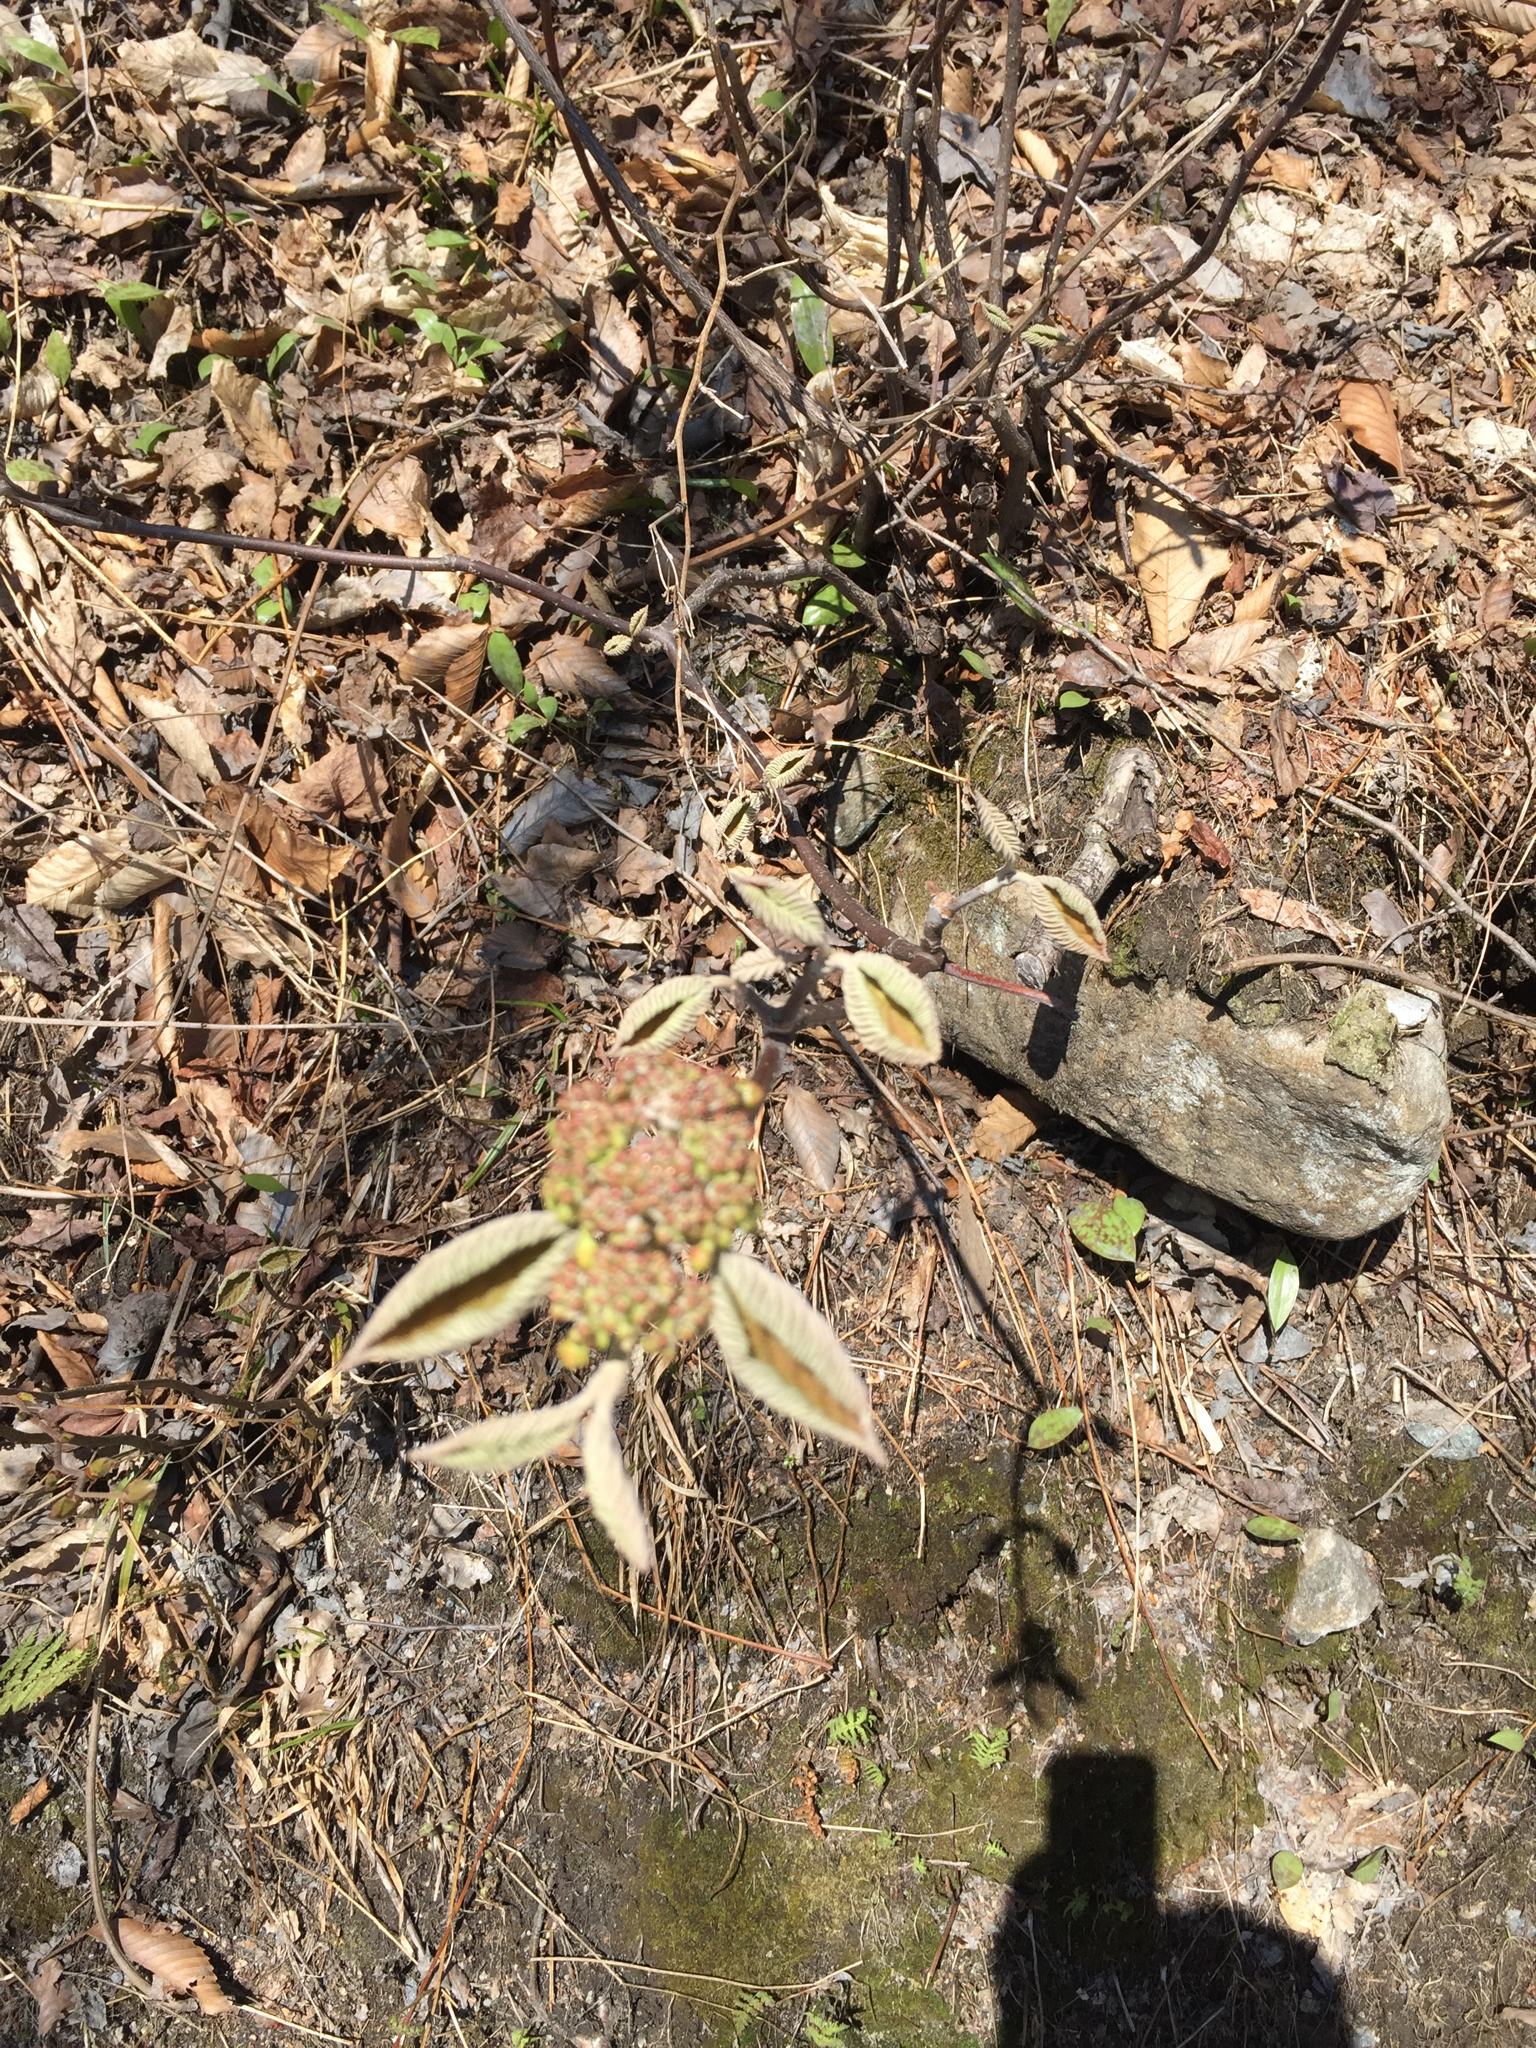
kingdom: Plantae
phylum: Tracheophyta
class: Magnoliopsida
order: Dipsacales
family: Viburnaceae
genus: Viburnum
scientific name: Viburnum lantanoides
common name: Hobblebush
